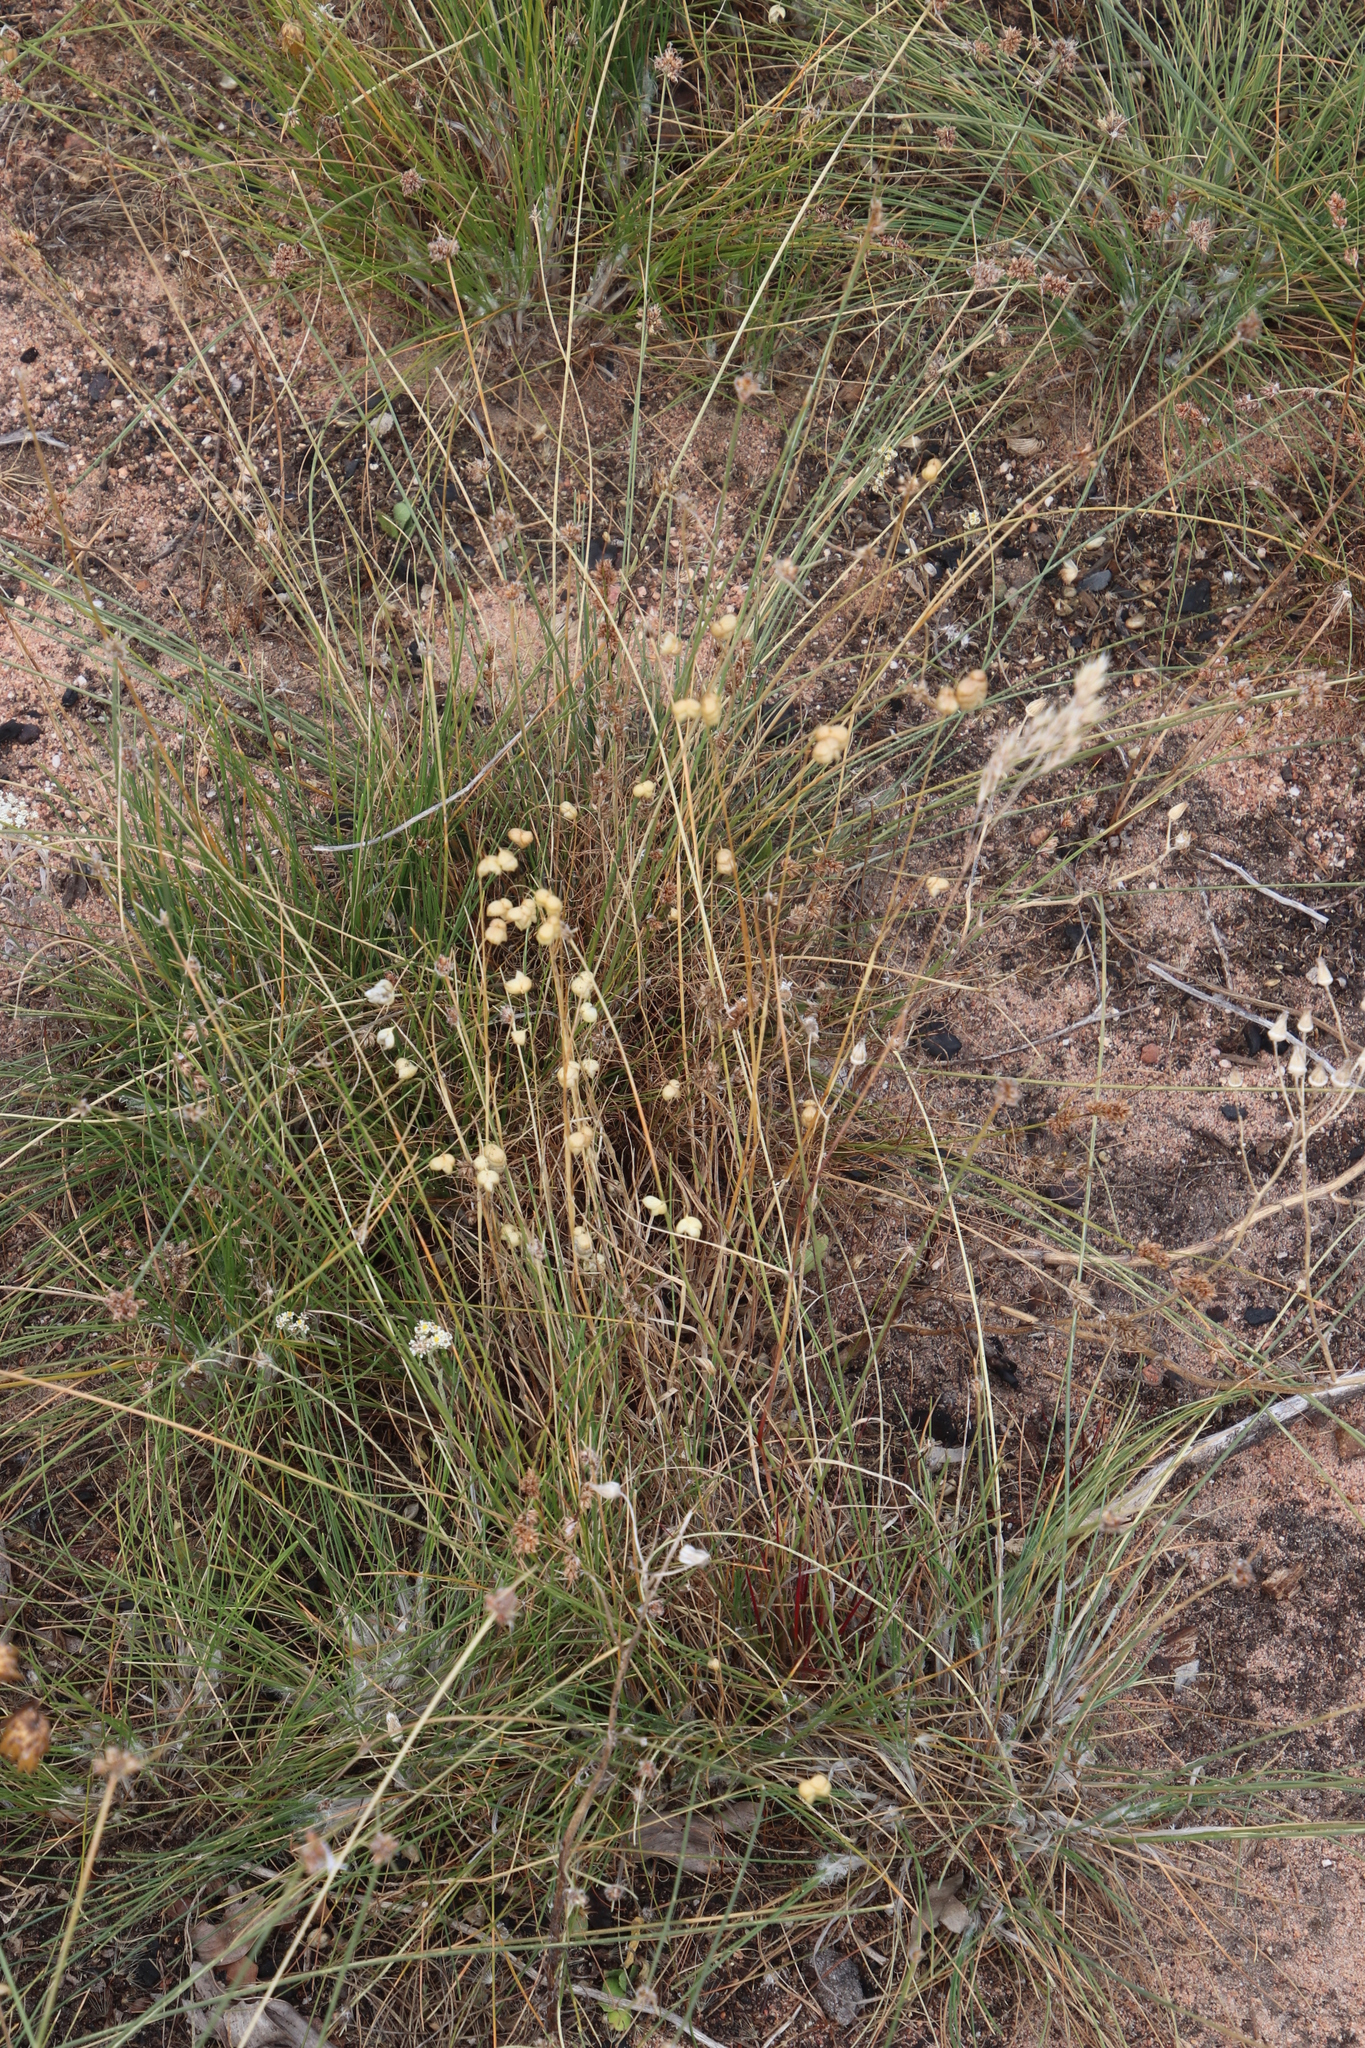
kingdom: Plantae
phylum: Tracheophyta
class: Liliopsida
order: Poales
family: Poaceae
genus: Briza
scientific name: Briza maxima
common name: Big quakinggrass
